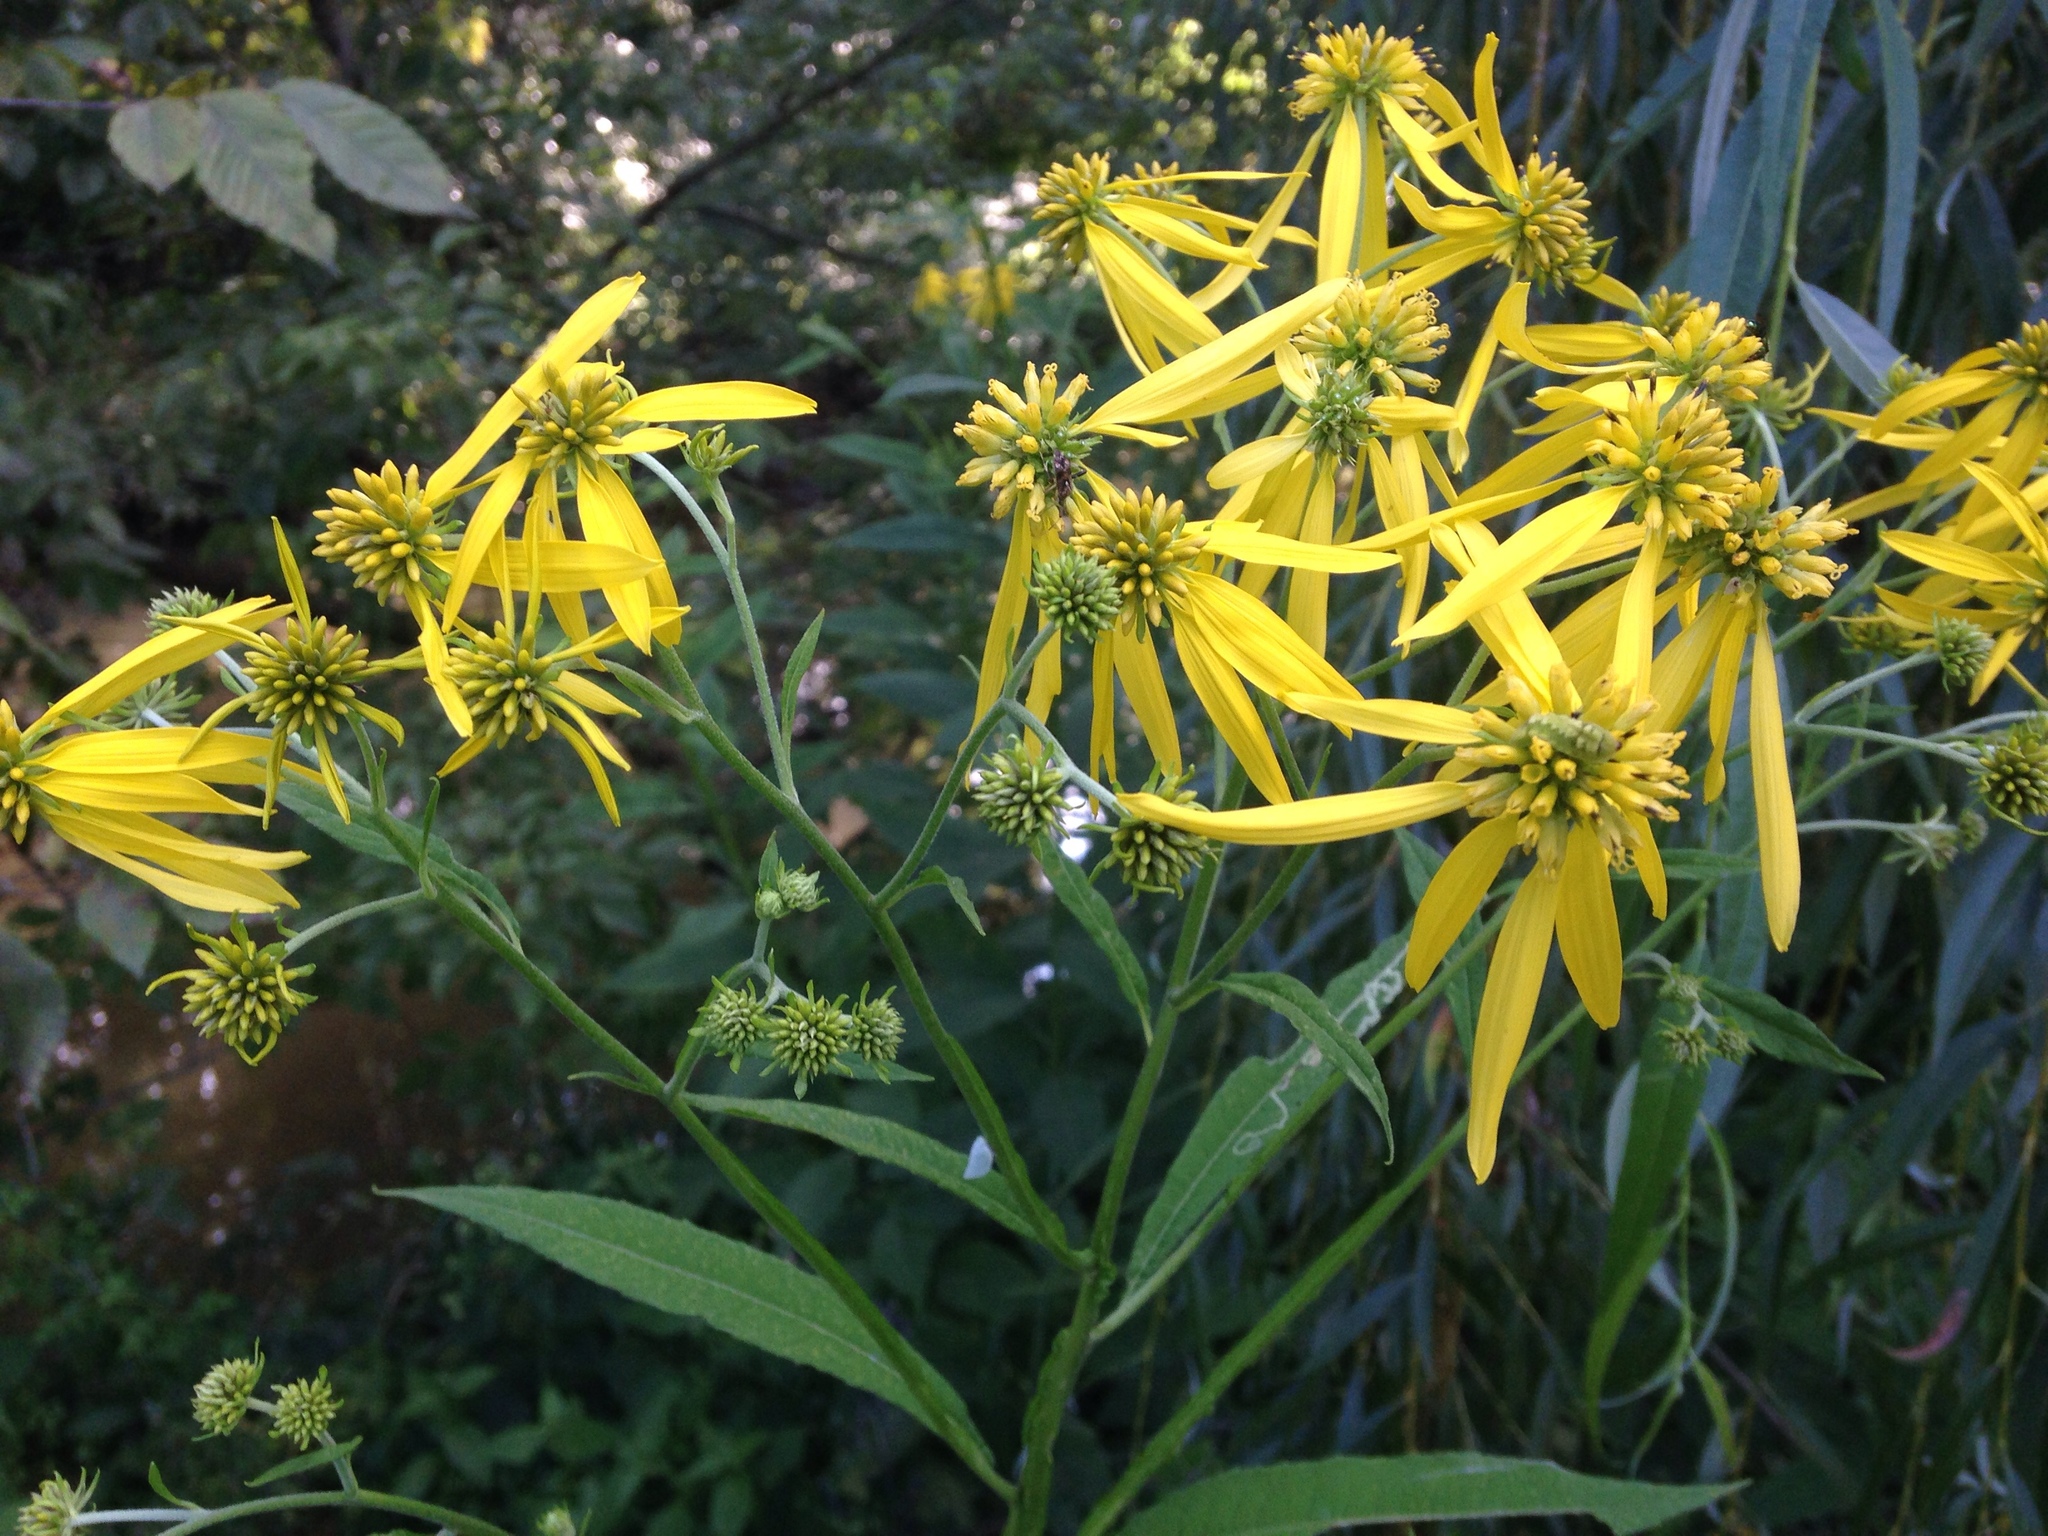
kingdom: Plantae
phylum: Tracheophyta
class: Magnoliopsida
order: Asterales
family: Asteraceae
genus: Verbesina
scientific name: Verbesina alternifolia
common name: Wingstem
